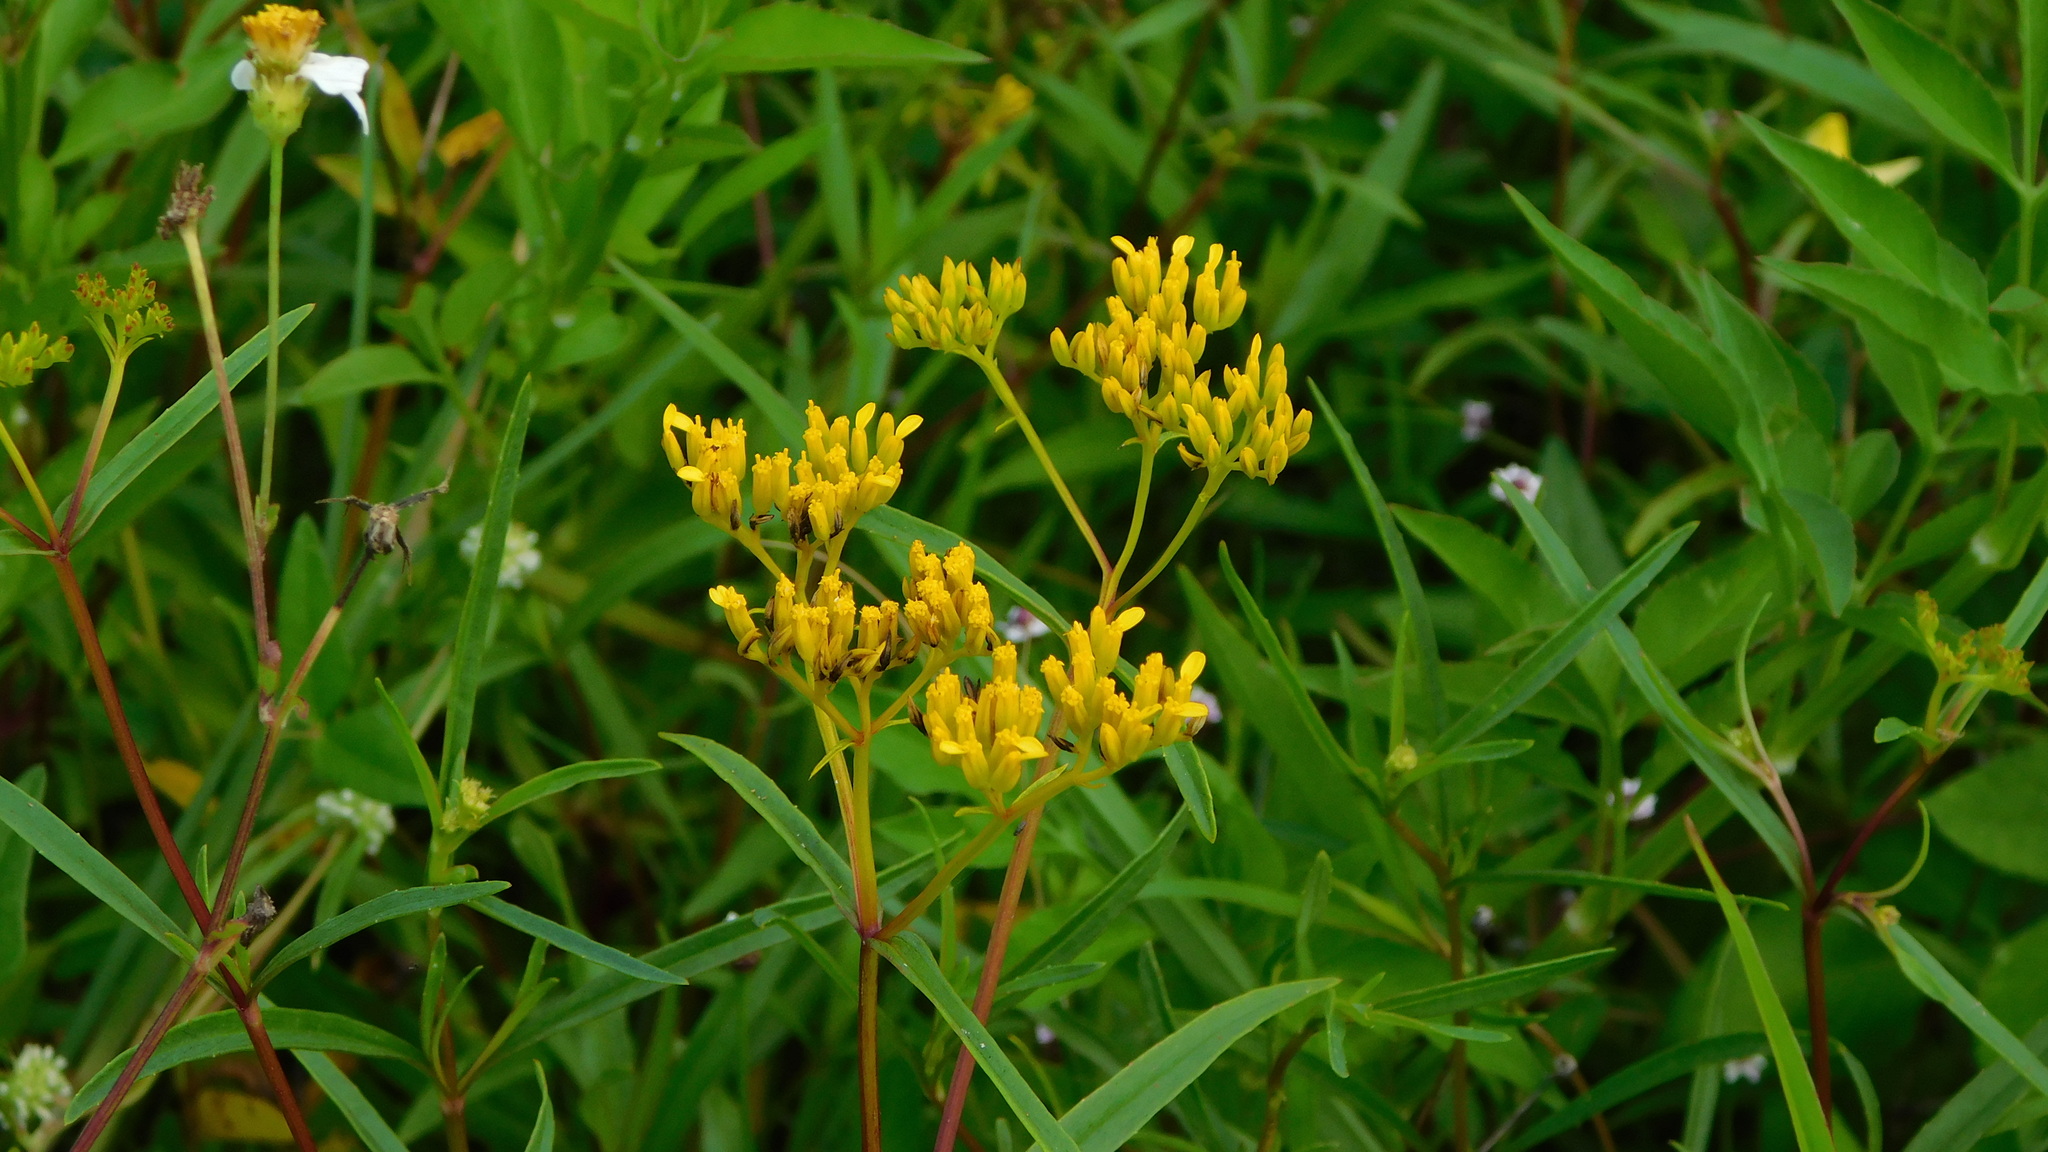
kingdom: Plantae
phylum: Tracheophyta
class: Magnoliopsida
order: Asterales
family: Asteraceae
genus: Flaveria
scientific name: Flaveria linearis
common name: Yellowtop
